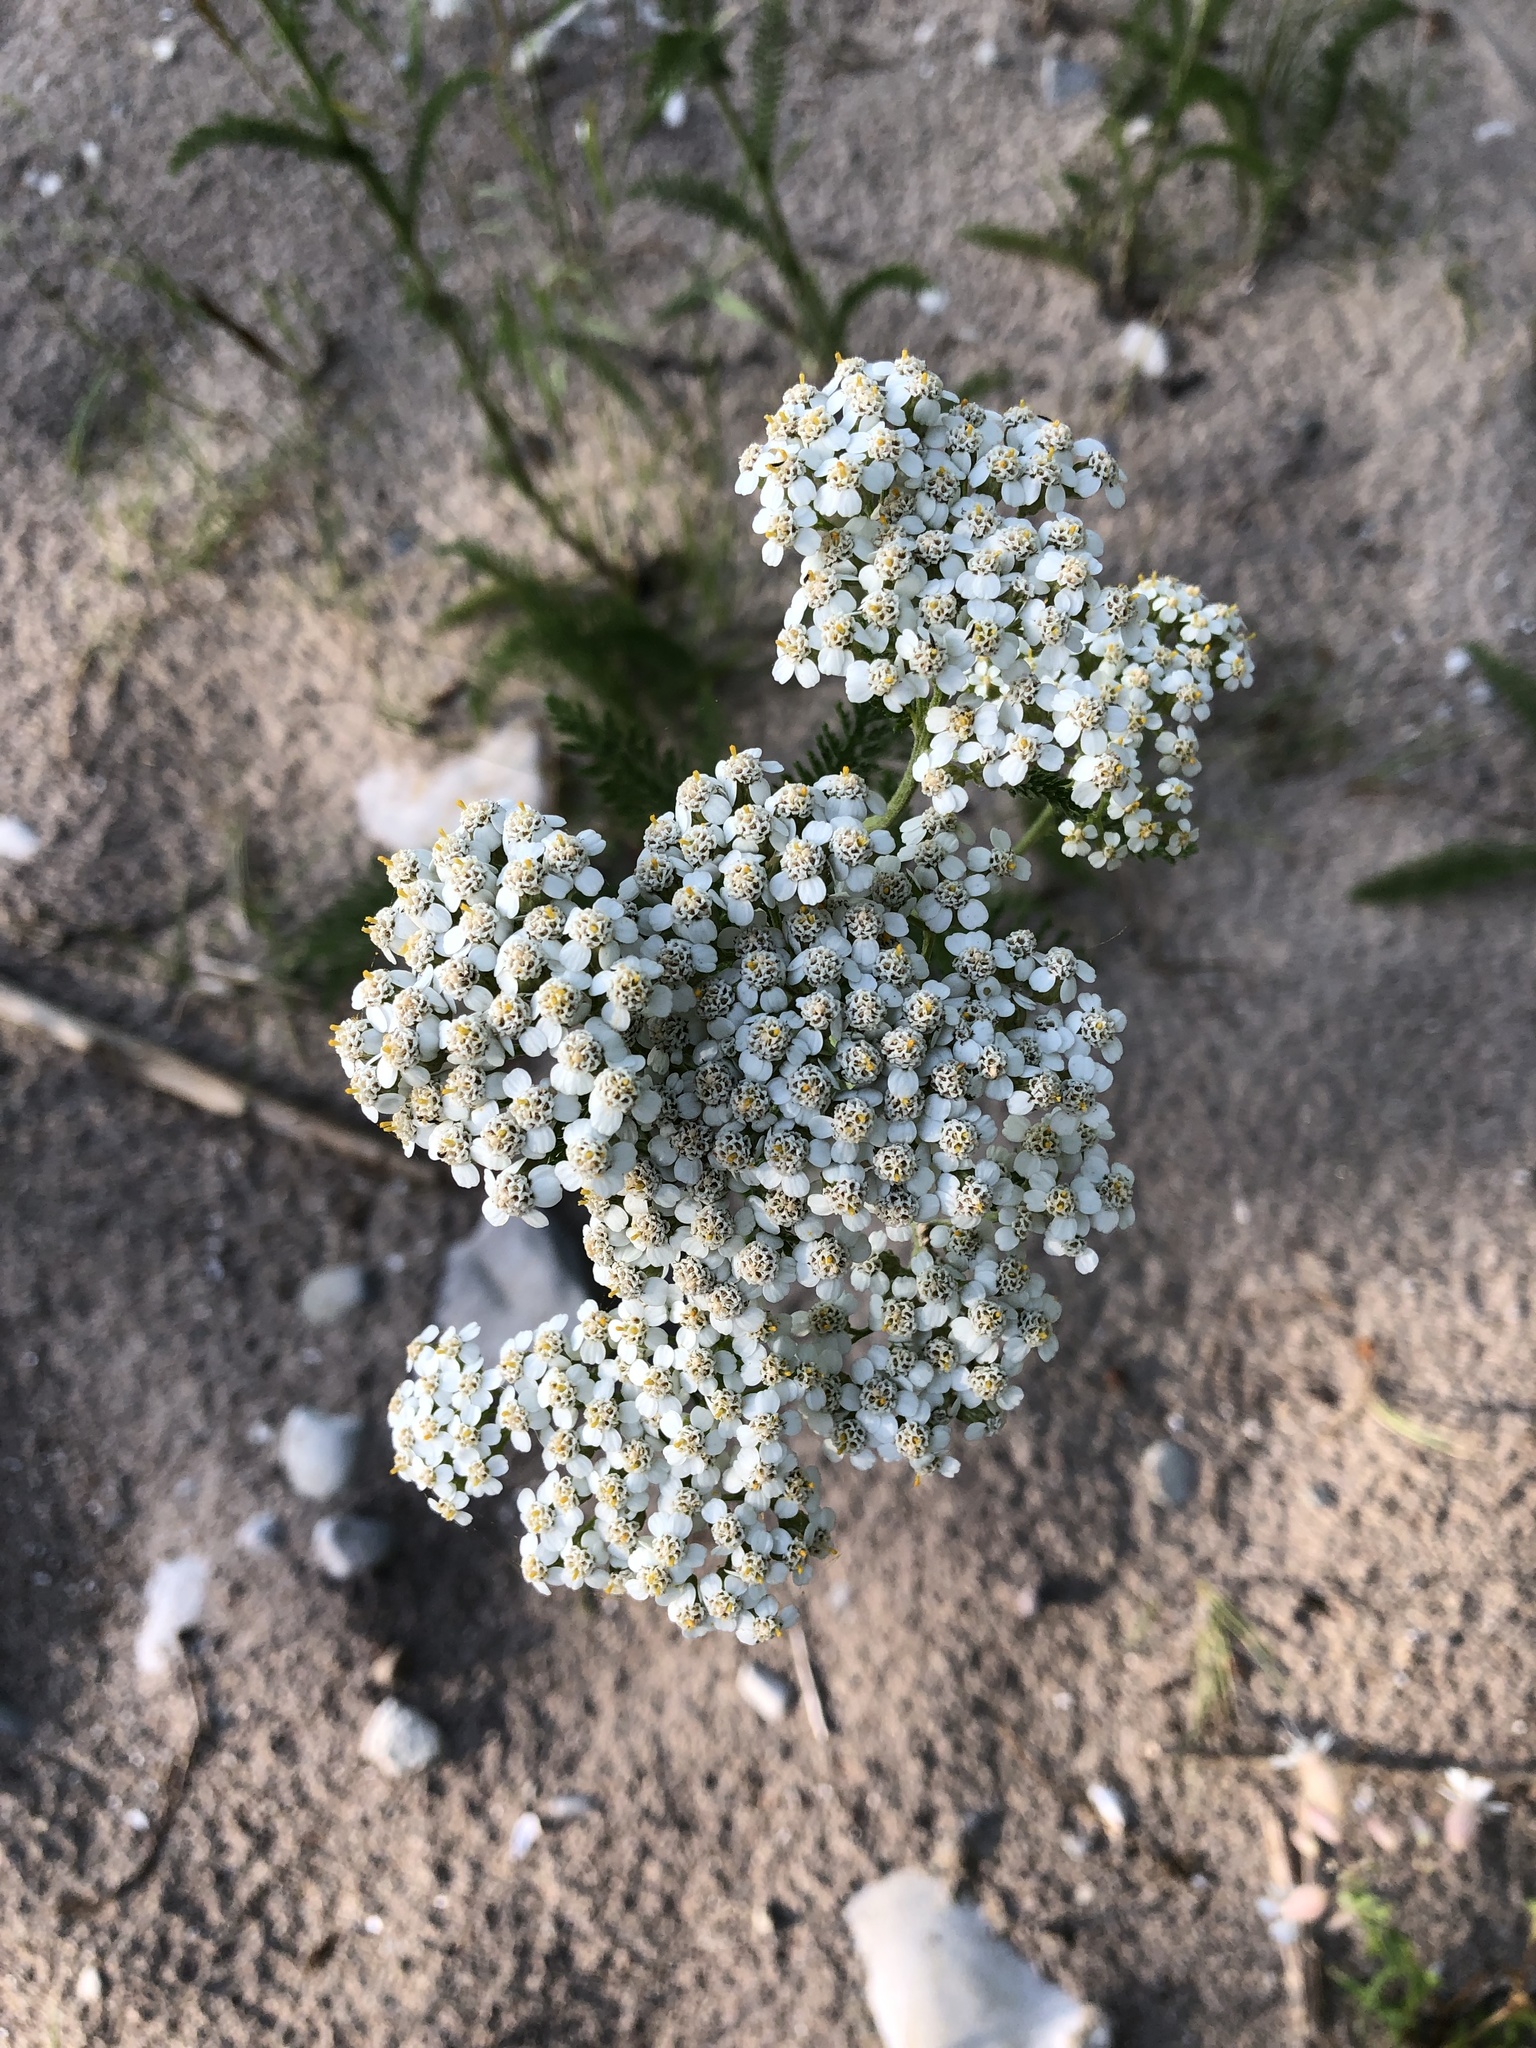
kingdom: Plantae
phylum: Tracheophyta
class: Magnoliopsida
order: Asterales
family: Asteraceae
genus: Achillea
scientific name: Achillea millefolium
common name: Yarrow
